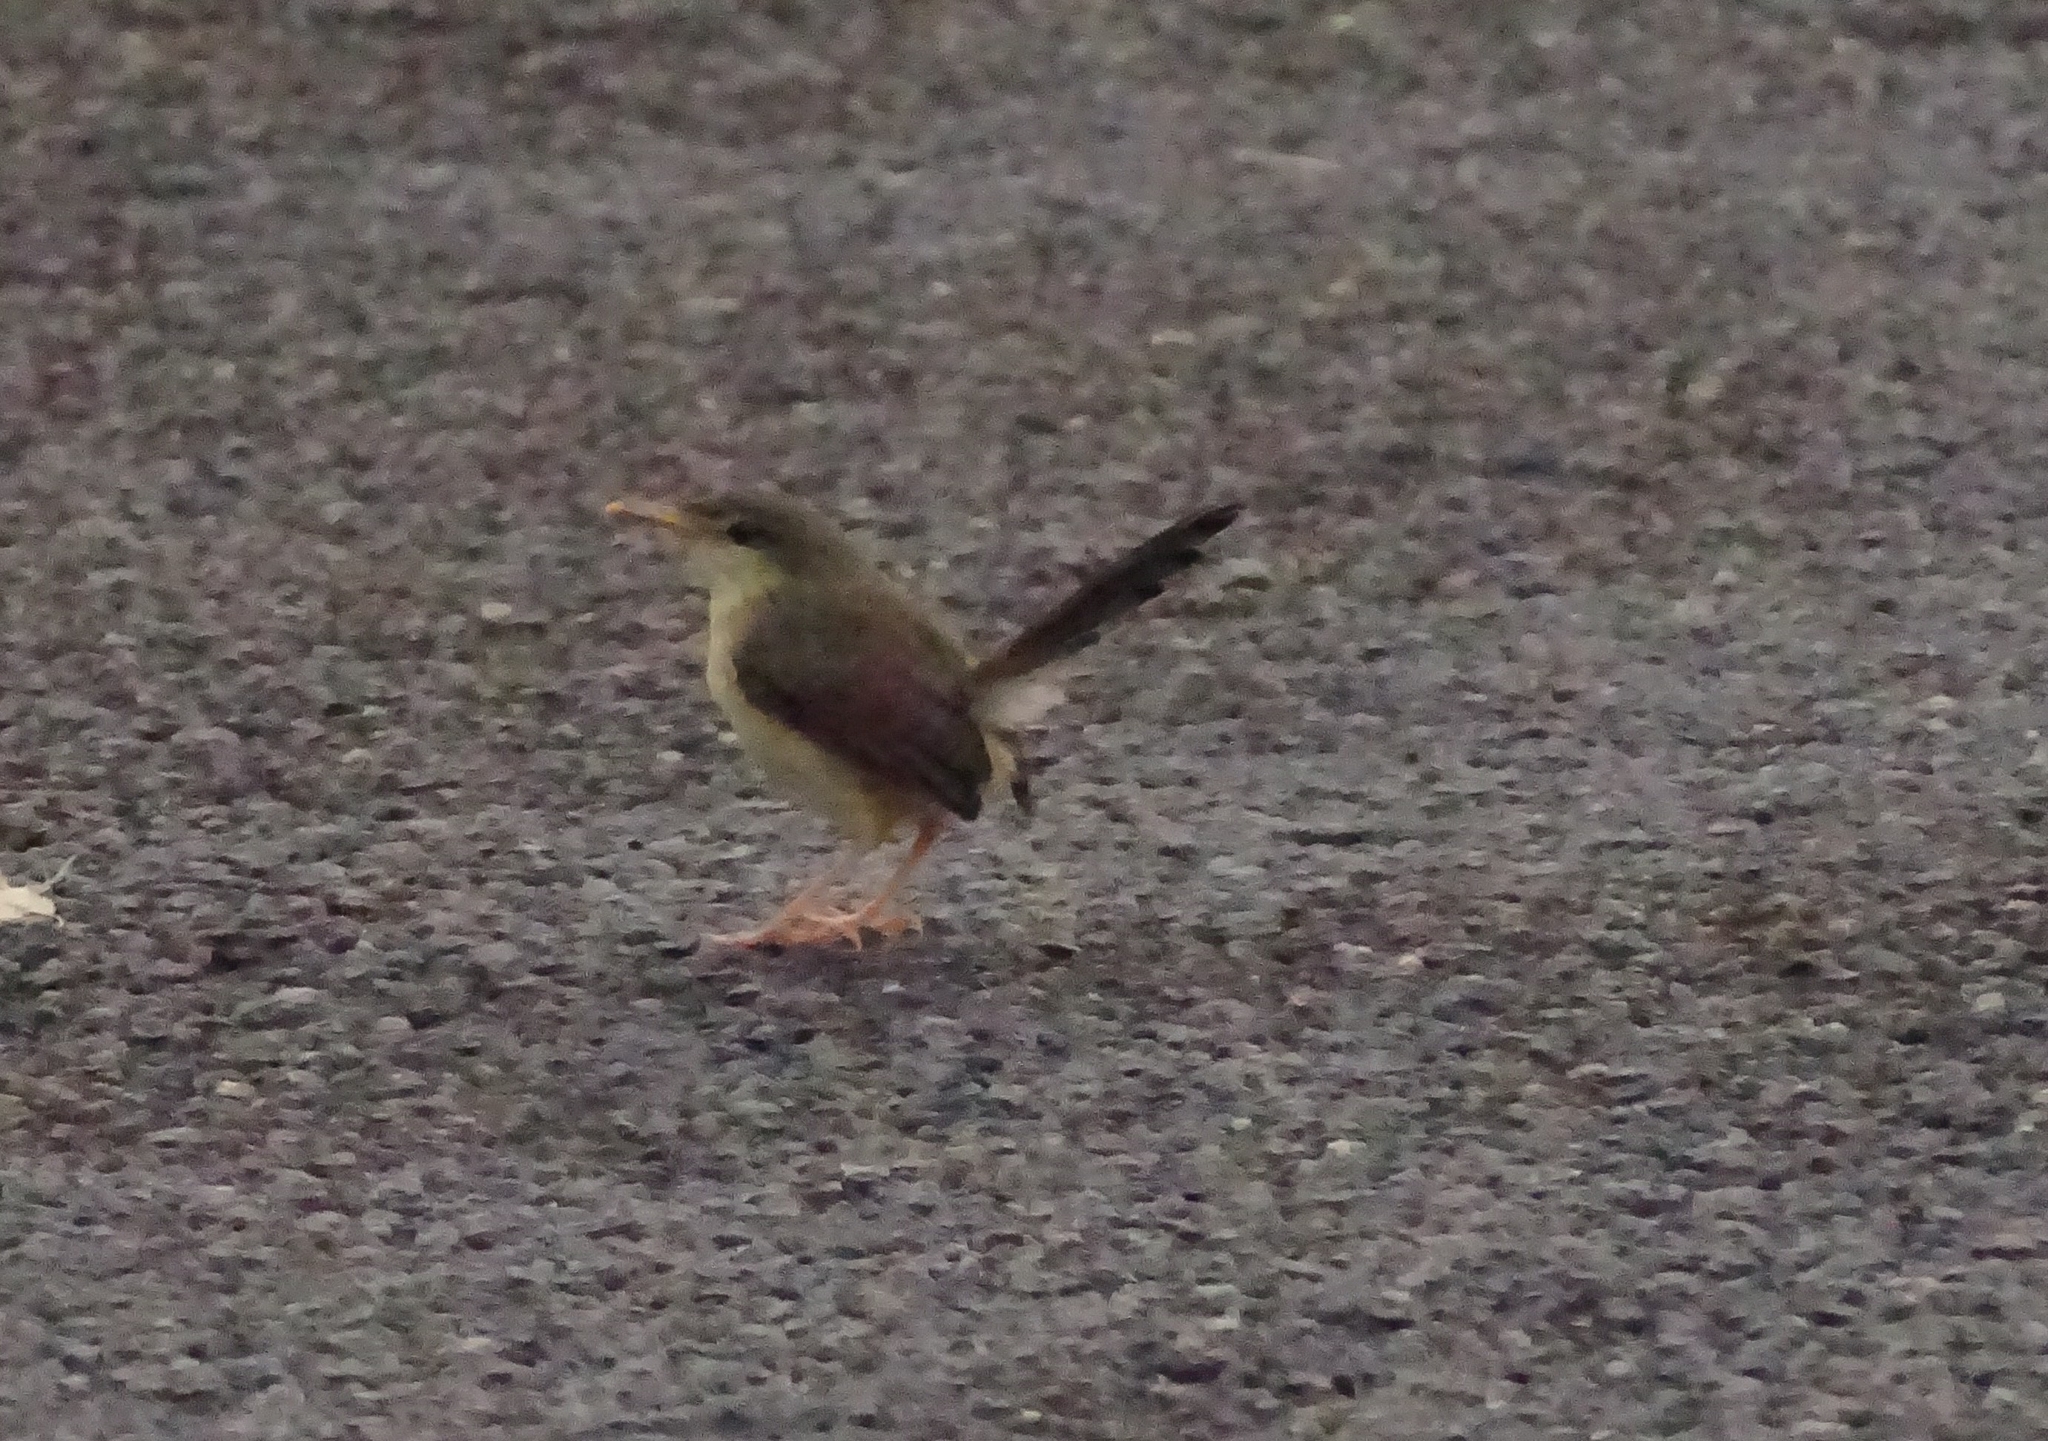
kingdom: Animalia
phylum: Chordata
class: Aves
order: Passeriformes
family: Cisticolidae
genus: Prinia
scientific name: Prinia socialis
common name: Ashy prinia
